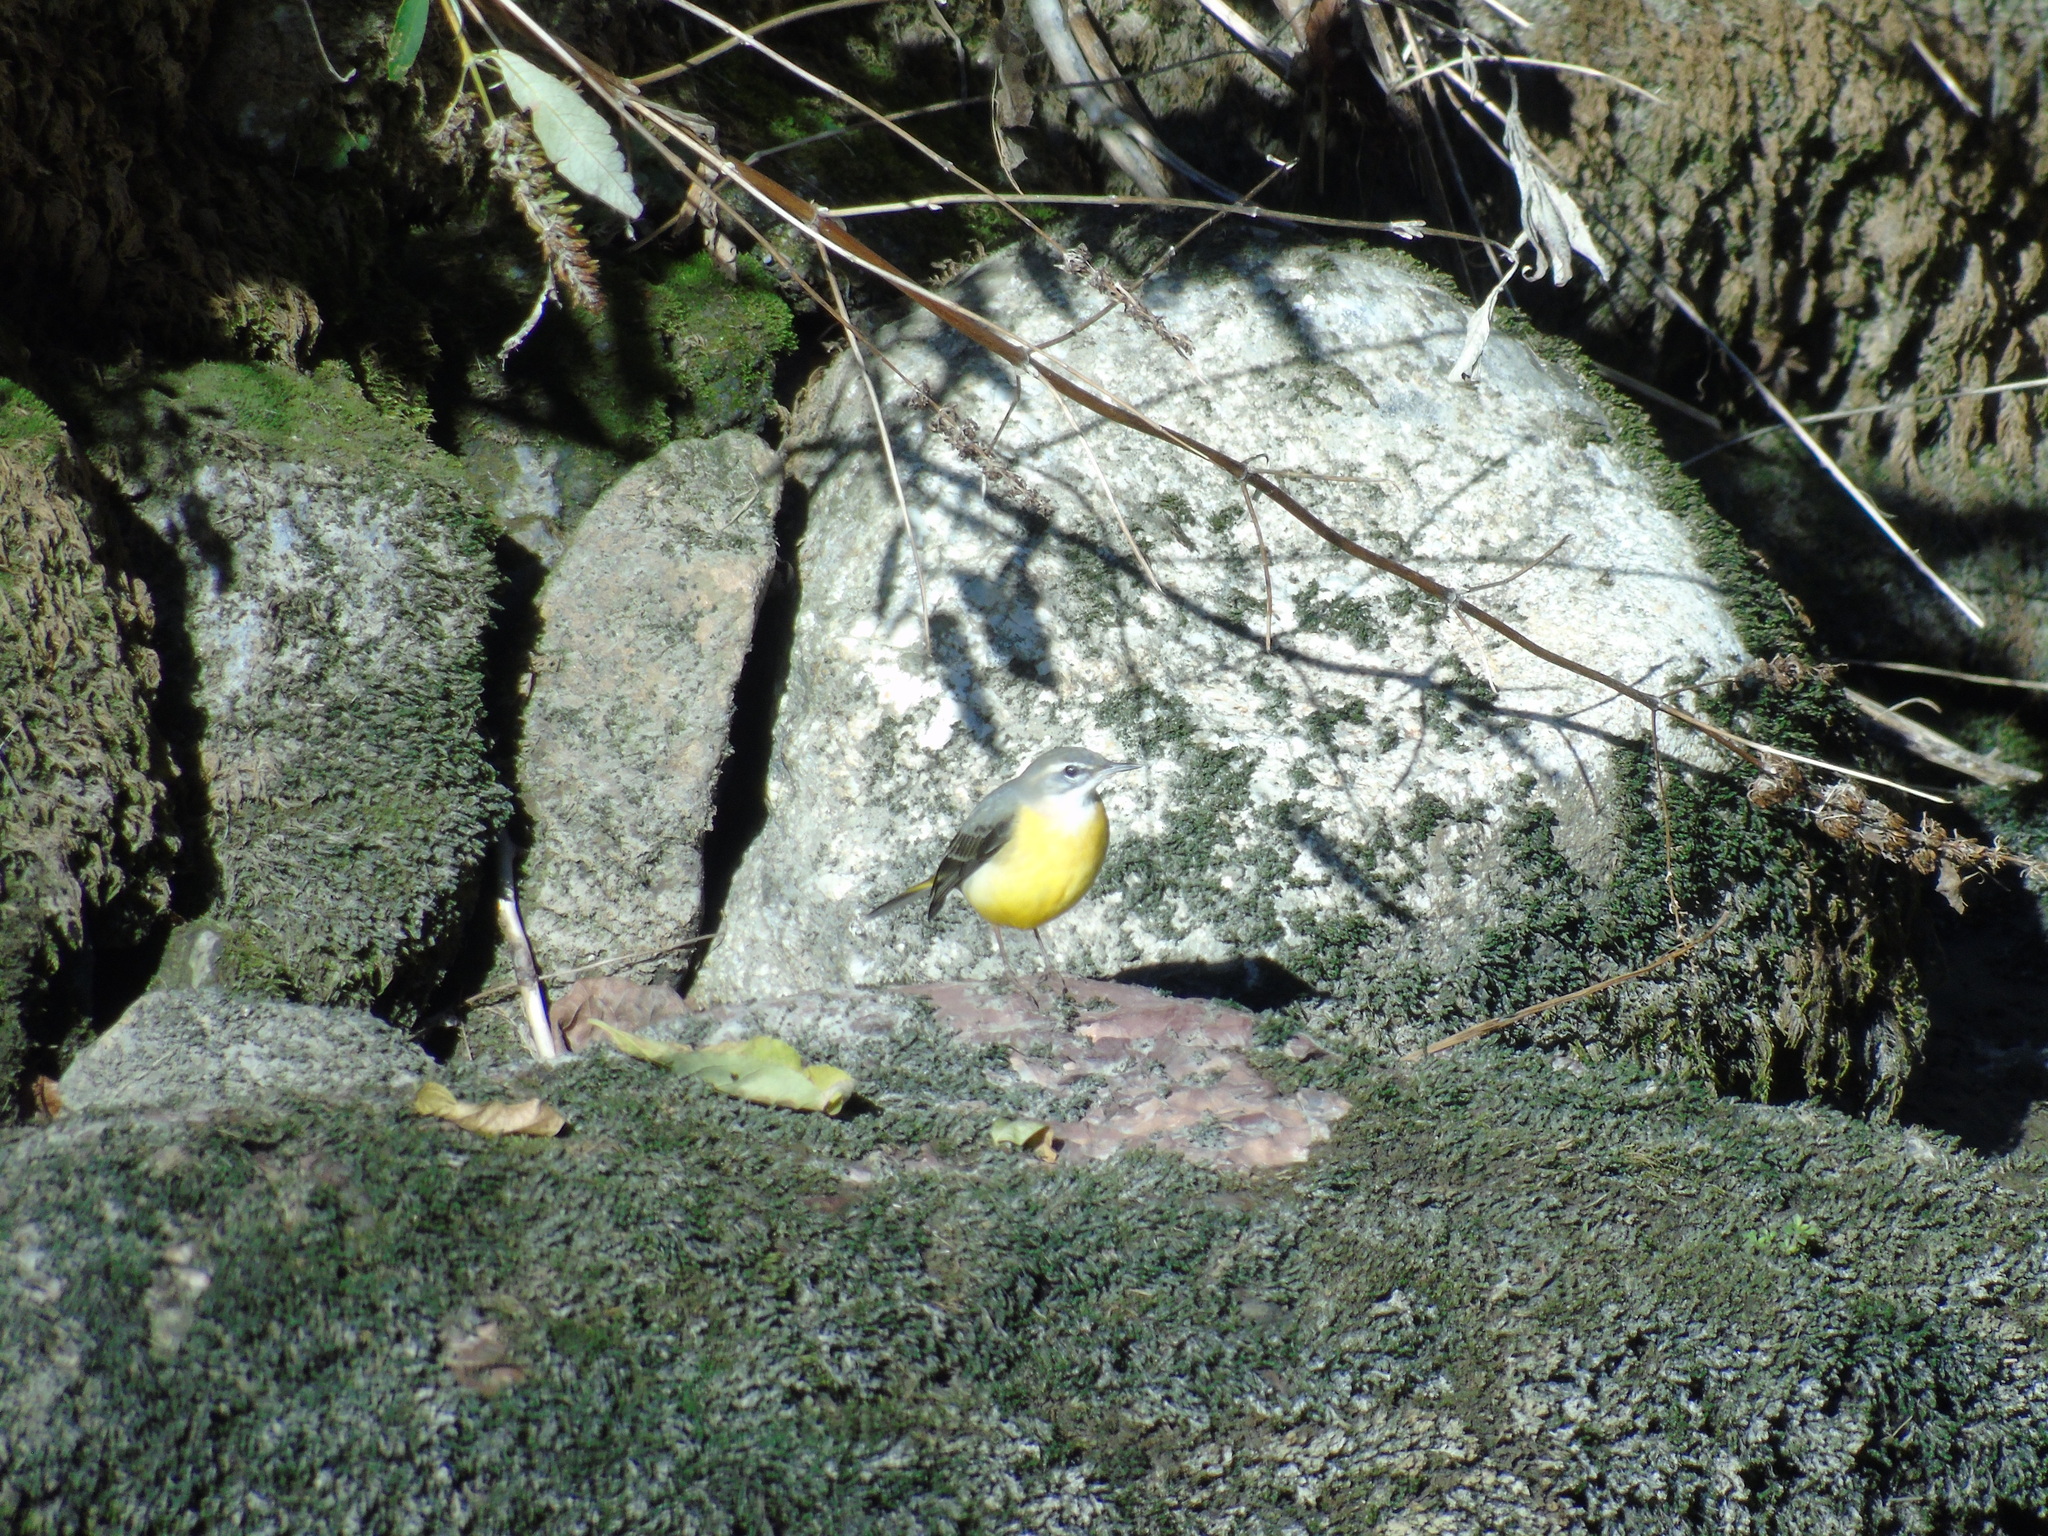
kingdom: Animalia
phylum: Chordata
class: Aves
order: Passeriformes
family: Motacillidae
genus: Motacilla
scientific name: Motacilla cinerea
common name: Grey wagtail
